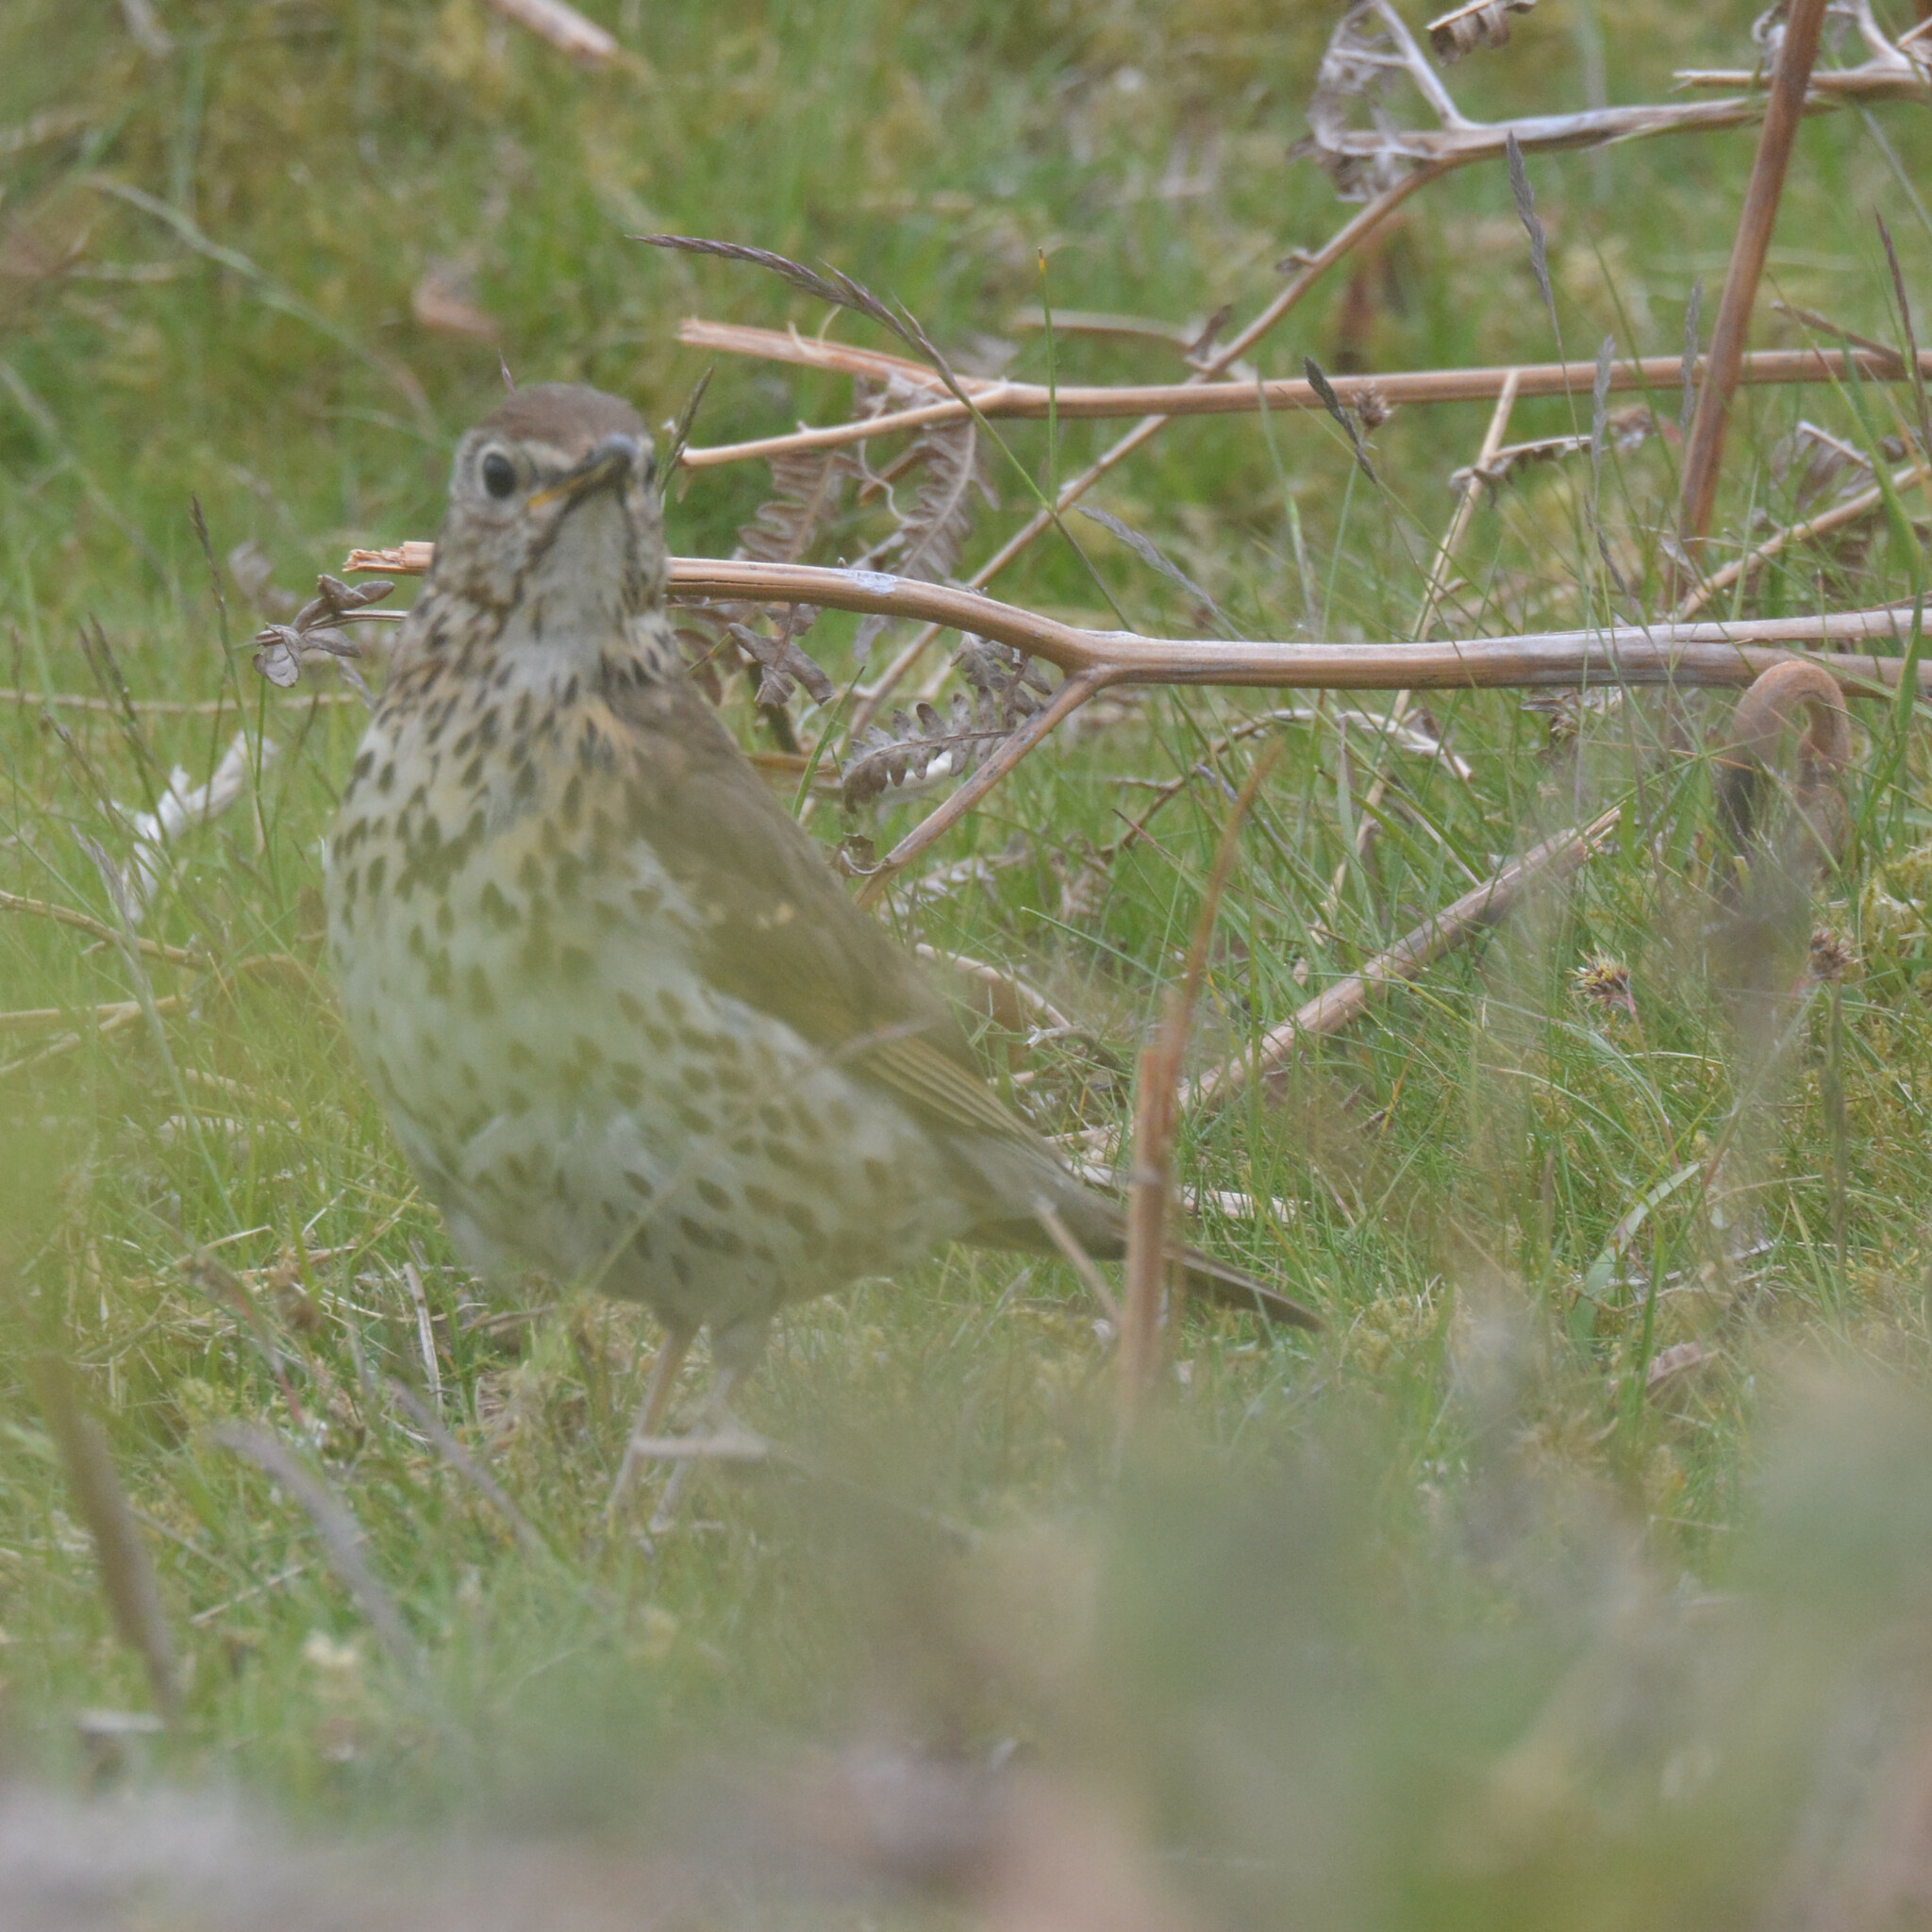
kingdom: Animalia
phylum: Chordata
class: Aves
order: Passeriformes
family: Turdidae
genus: Turdus
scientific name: Turdus philomelos
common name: Song thrush
